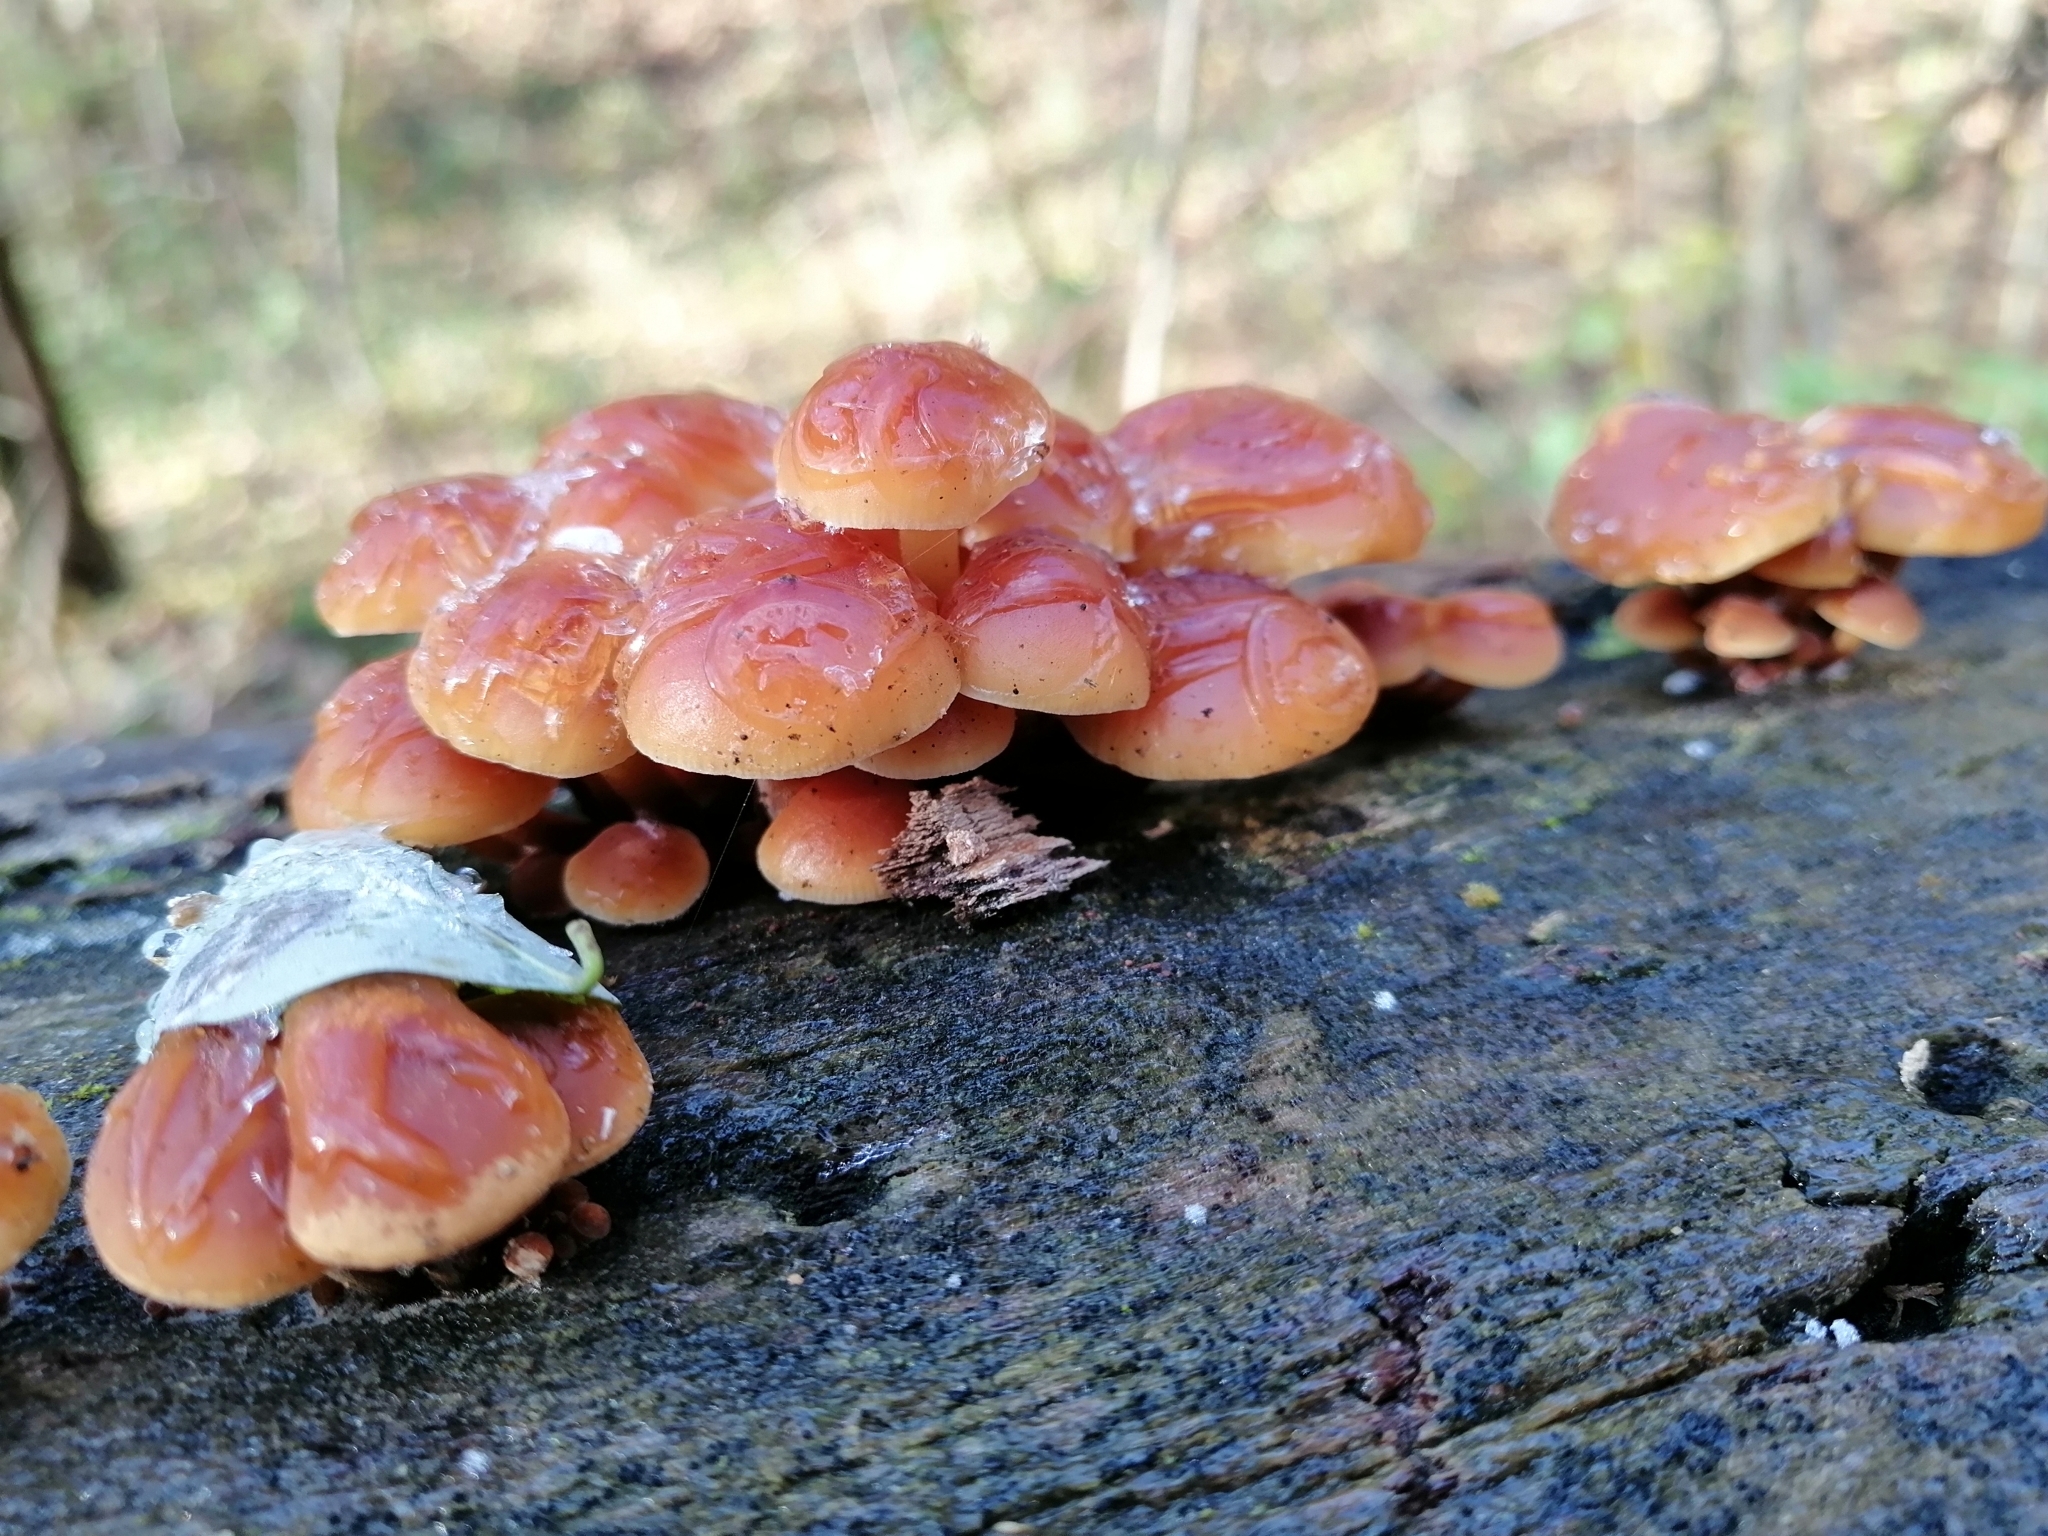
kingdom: Fungi
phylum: Basidiomycota
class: Agaricomycetes
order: Agaricales
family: Physalacriaceae
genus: Flammulina
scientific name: Flammulina
